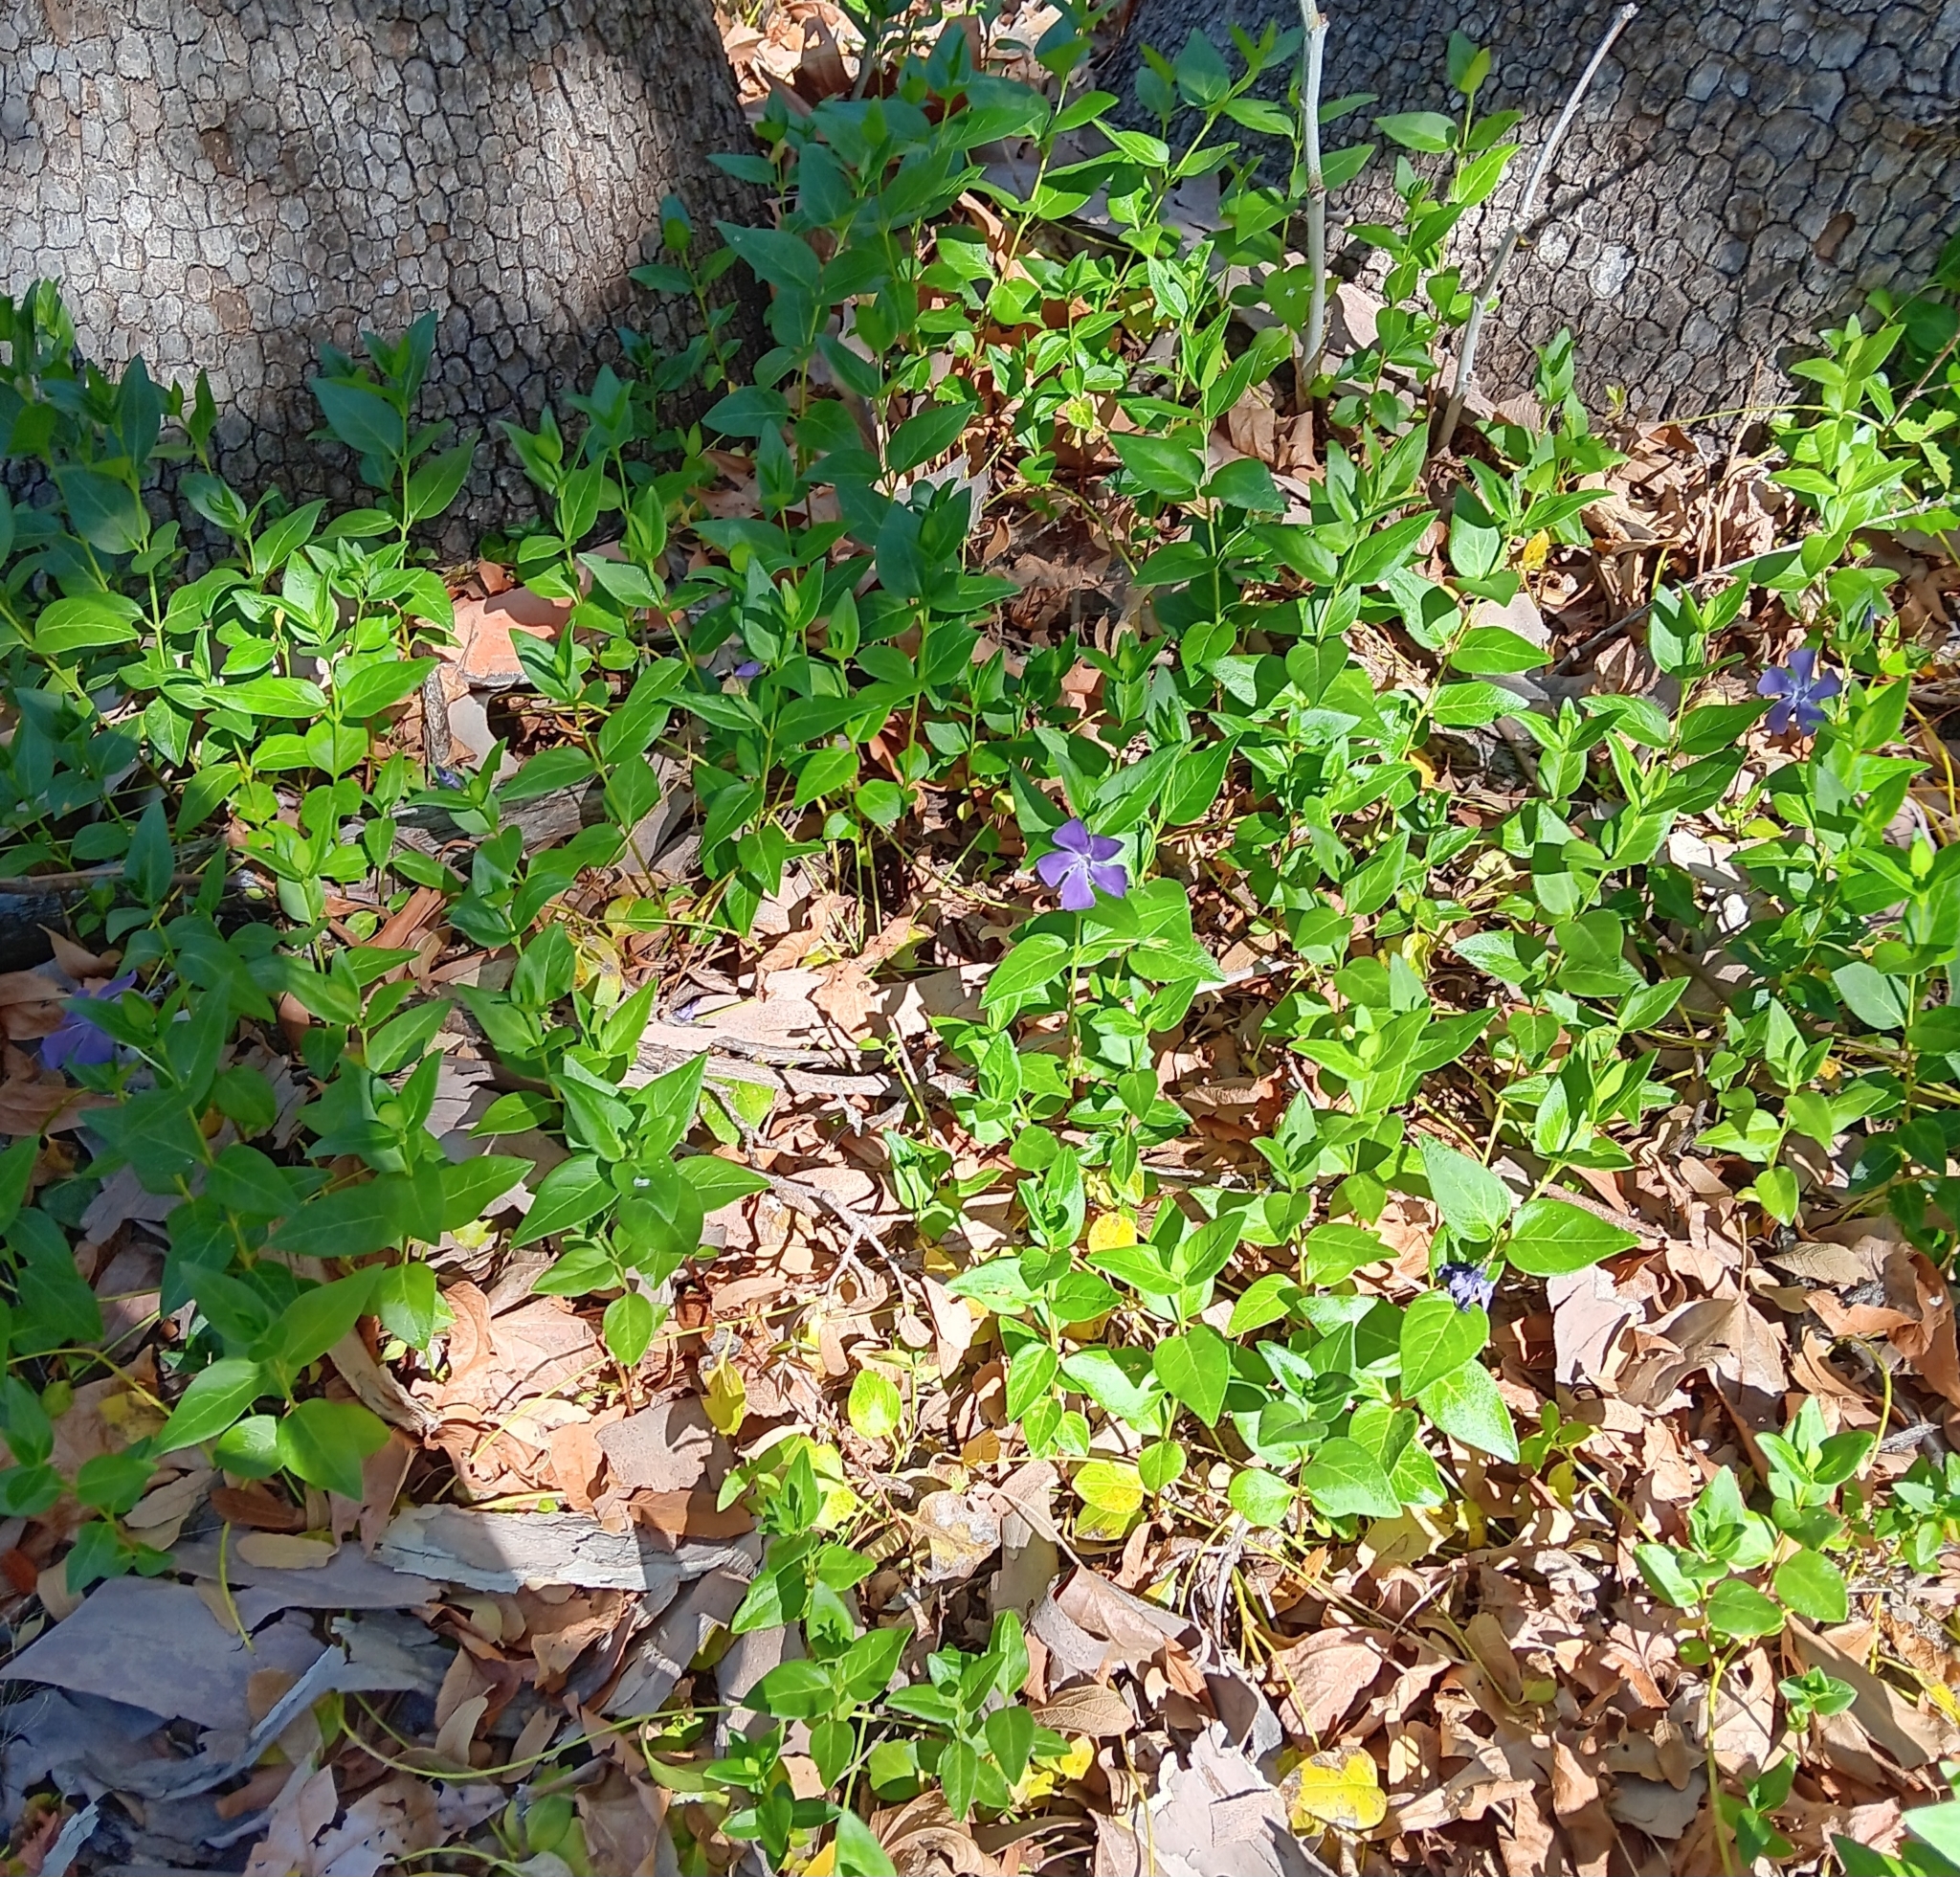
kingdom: Plantae
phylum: Tracheophyta
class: Magnoliopsida
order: Gentianales
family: Apocynaceae
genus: Vinca
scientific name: Vinca major
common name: Greater periwinkle
